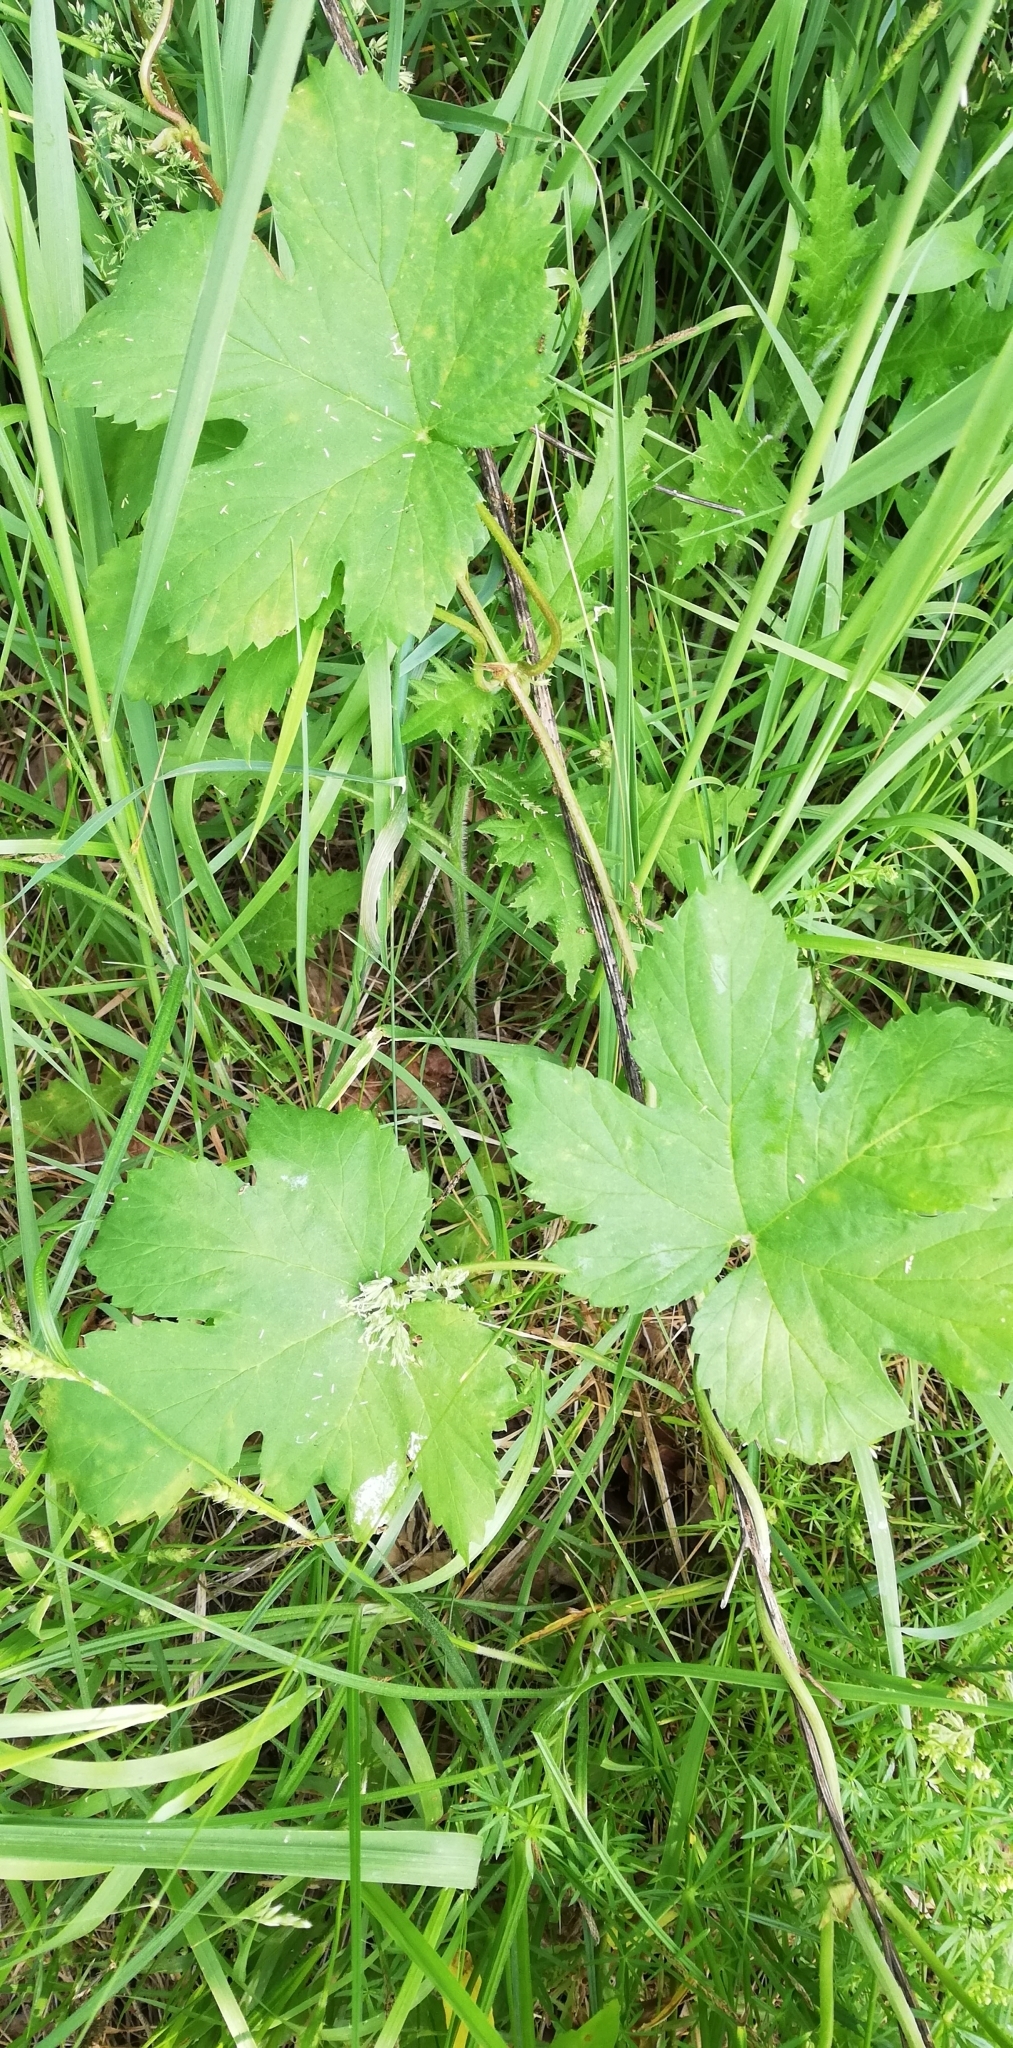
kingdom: Plantae
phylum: Tracheophyta
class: Magnoliopsida
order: Rosales
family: Cannabaceae
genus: Humulus
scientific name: Humulus lupulus
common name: Hop
